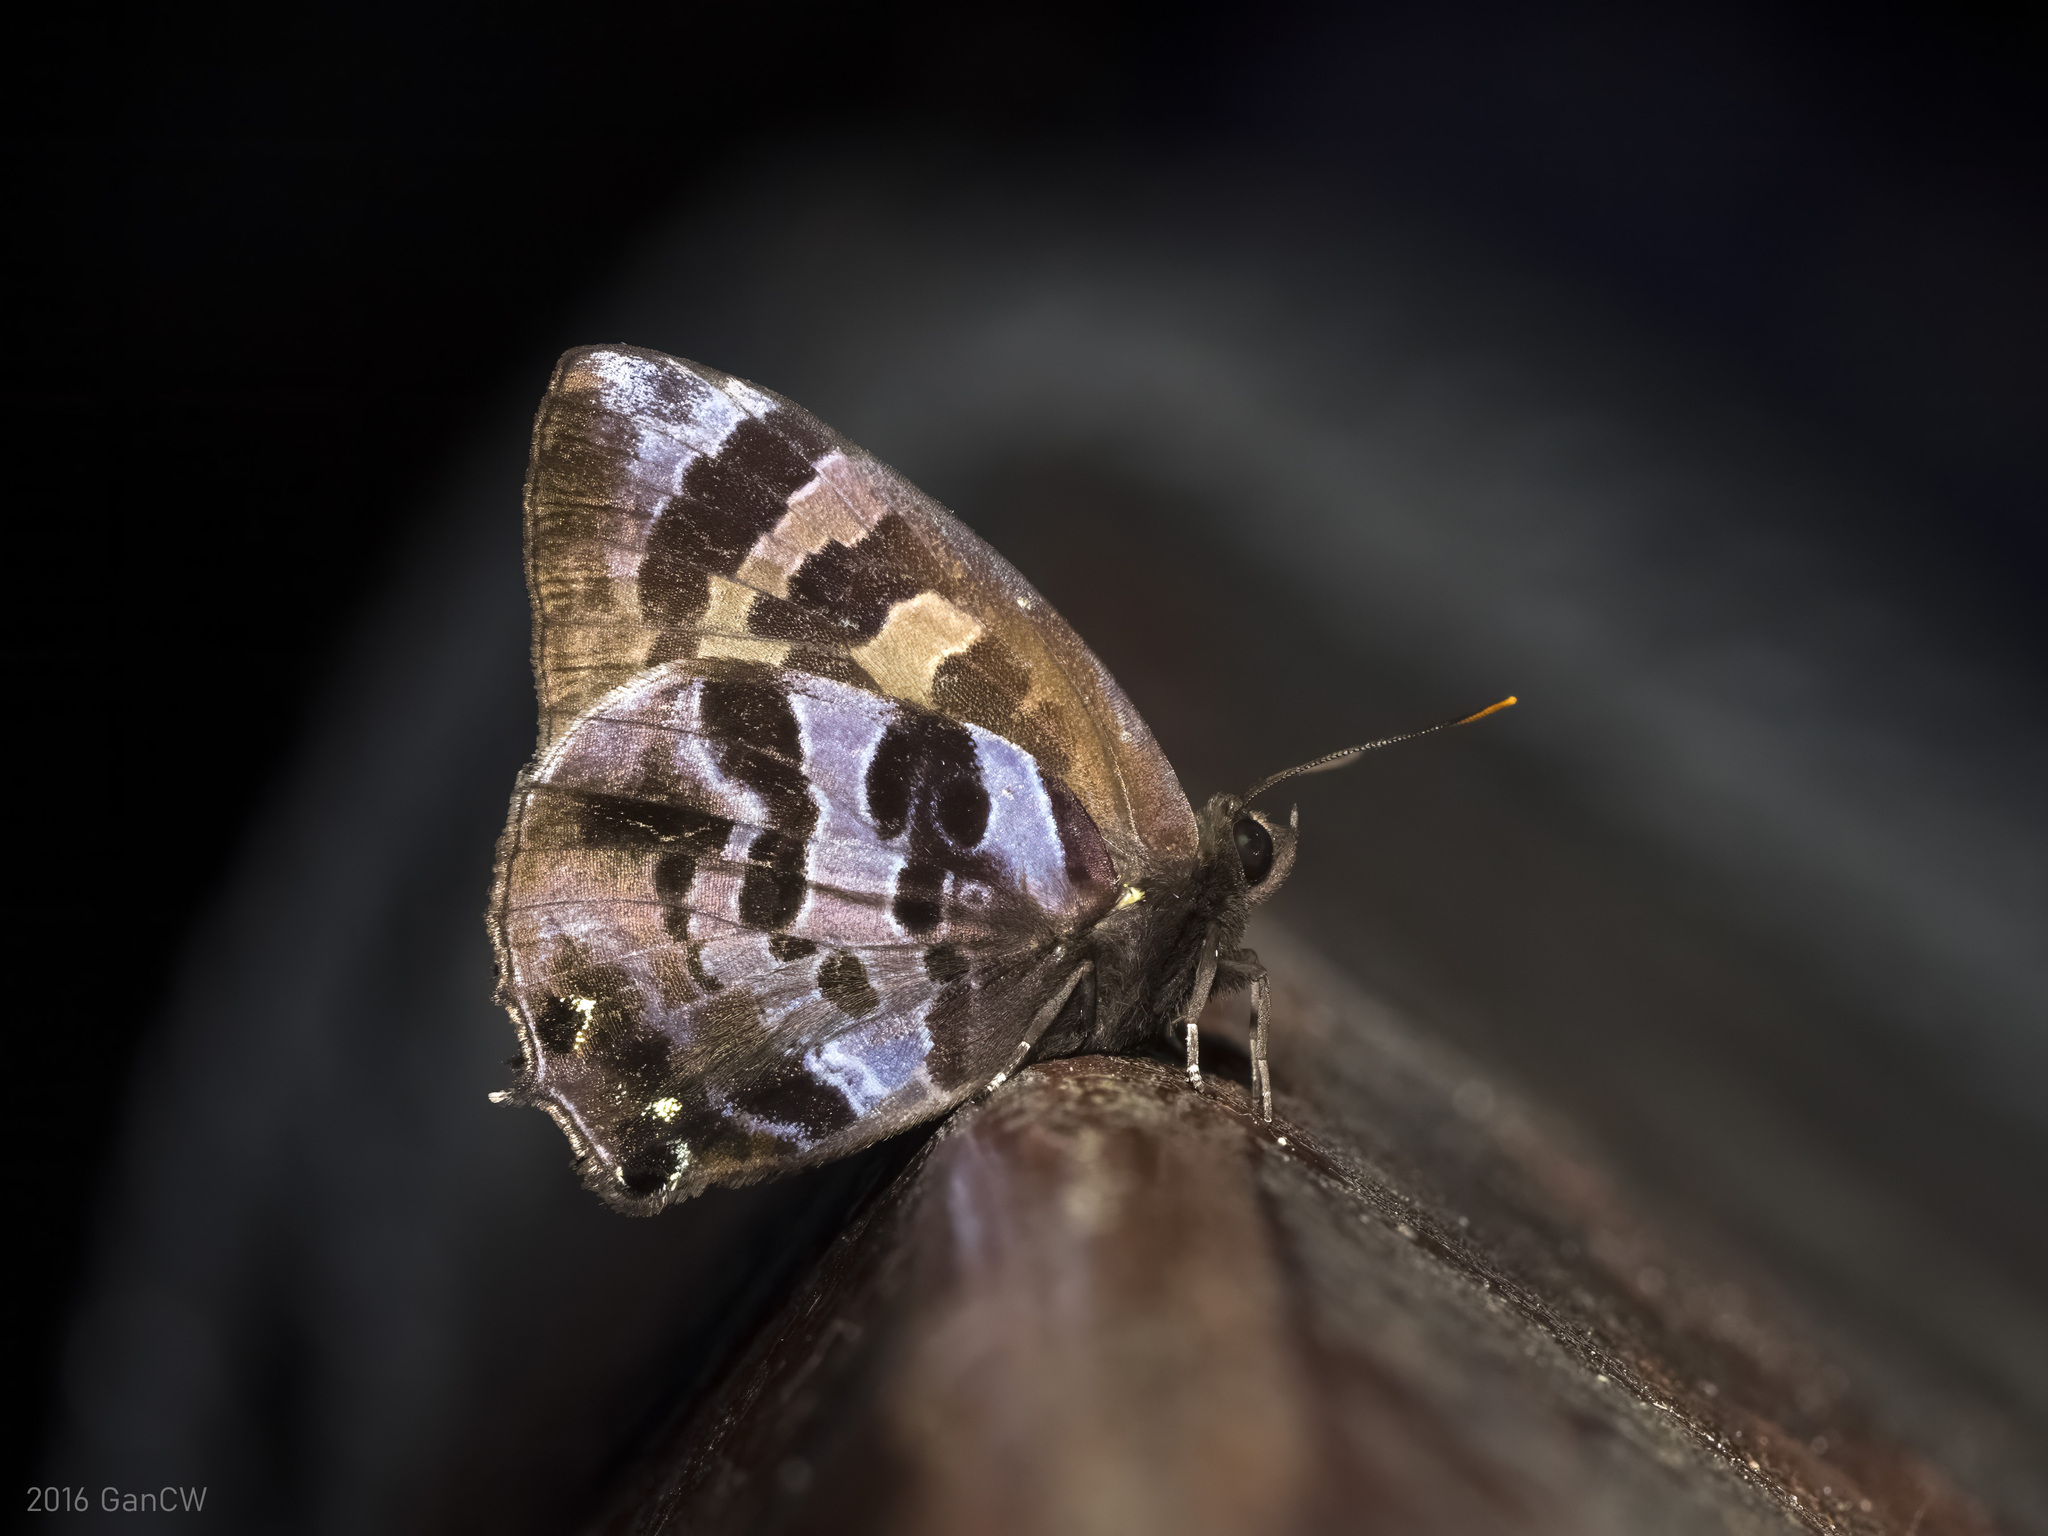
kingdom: Animalia
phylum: Arthropoda
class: Insecta
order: Lepidoptera
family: Lycaenidae
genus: Flos
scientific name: Flos
